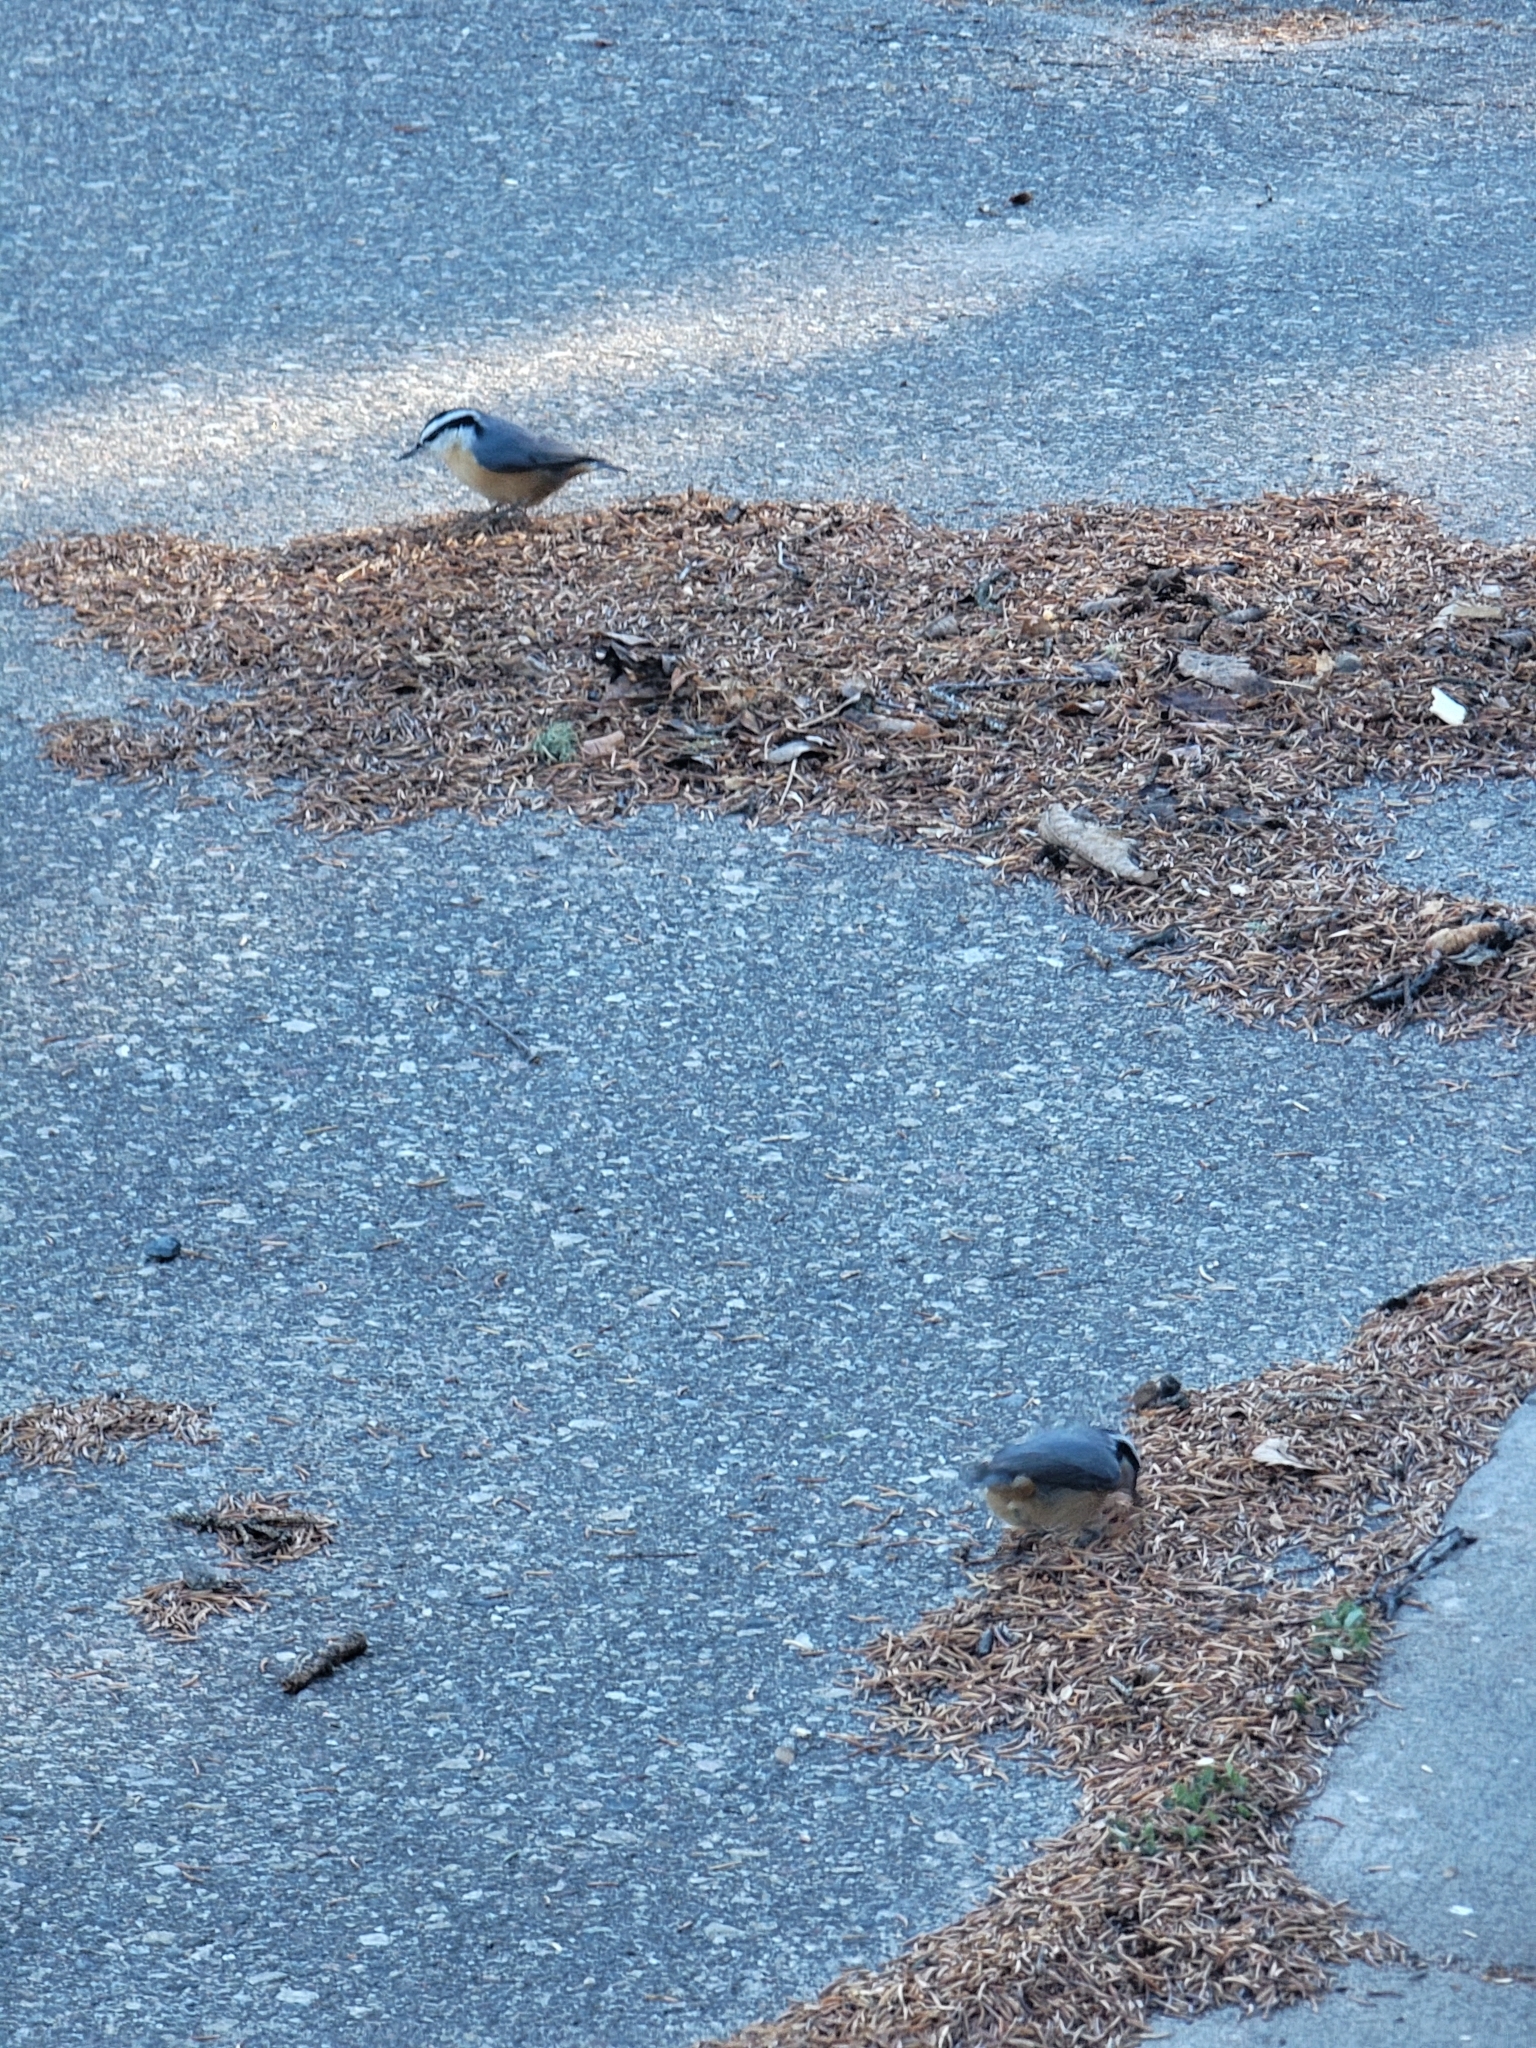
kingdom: Animalia
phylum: Chordata
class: Aves
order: Passeriformes
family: Sittidae
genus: Sitta
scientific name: Sitta canadensis
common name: Red-breasted nuthatch
